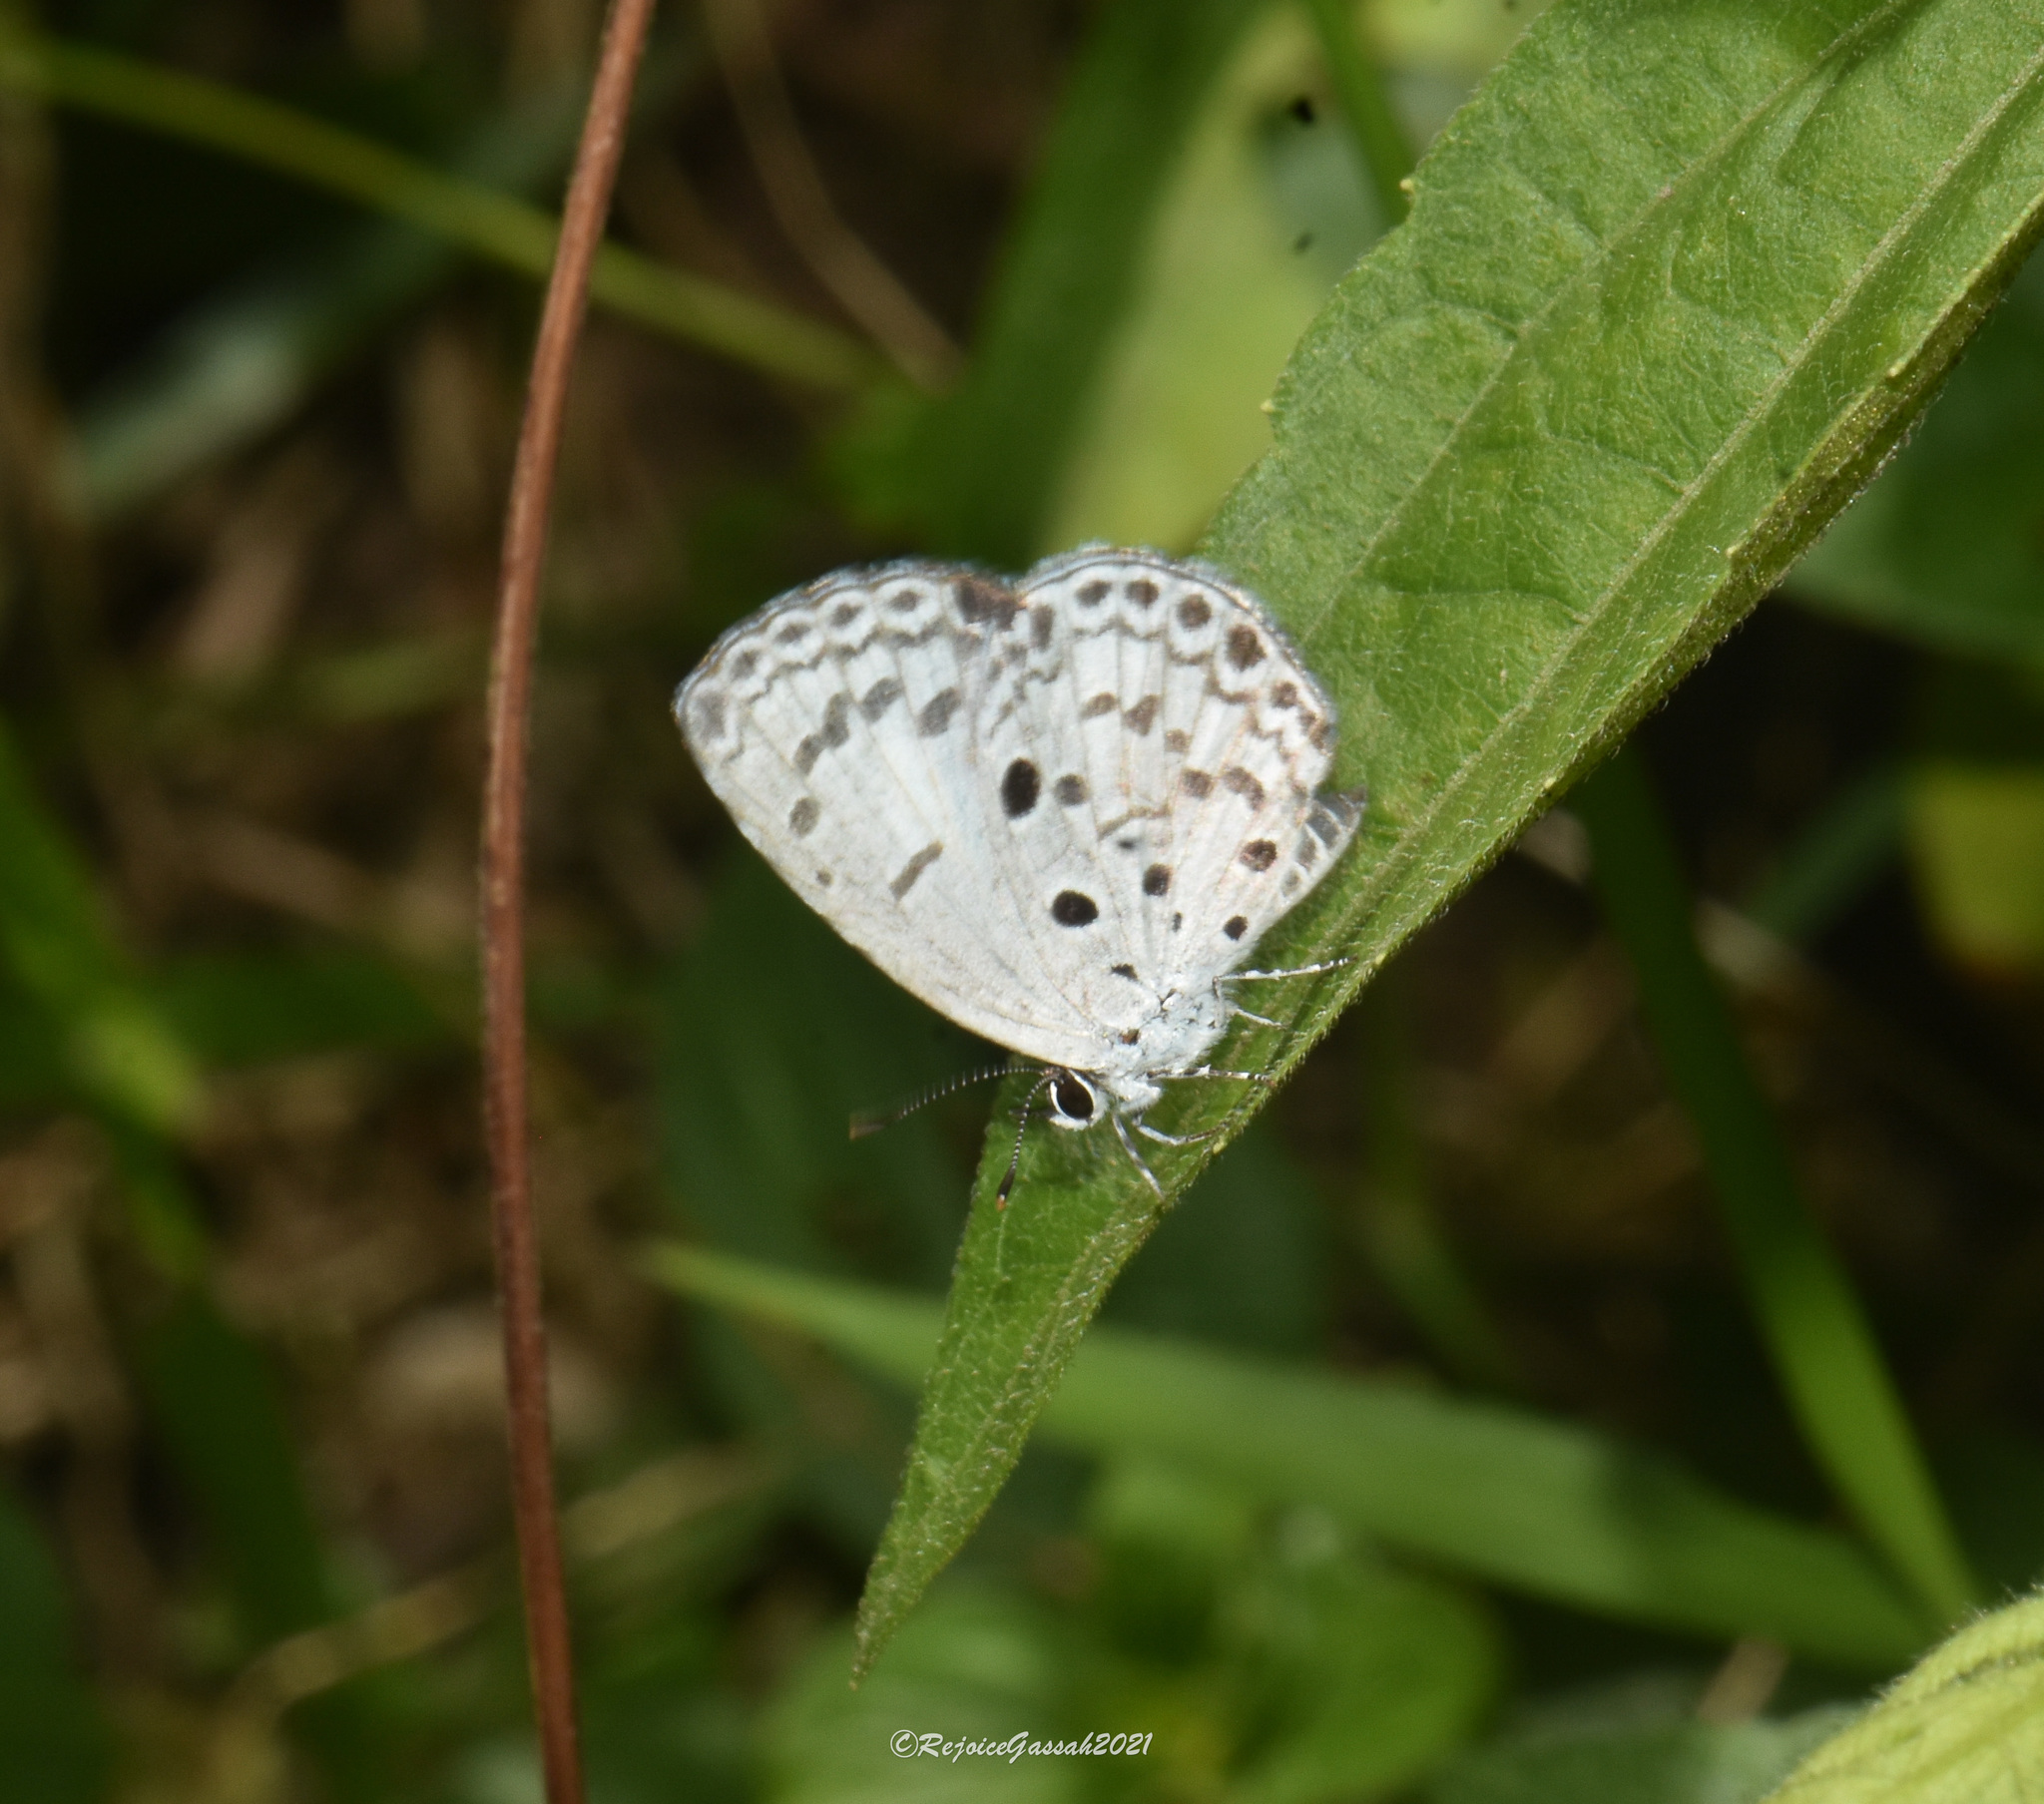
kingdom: Animalia
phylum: Arthropoda
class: Insecta
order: Lepidoptera
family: Lycaenidae
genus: Acytolepis
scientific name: Acytolepis puspa
